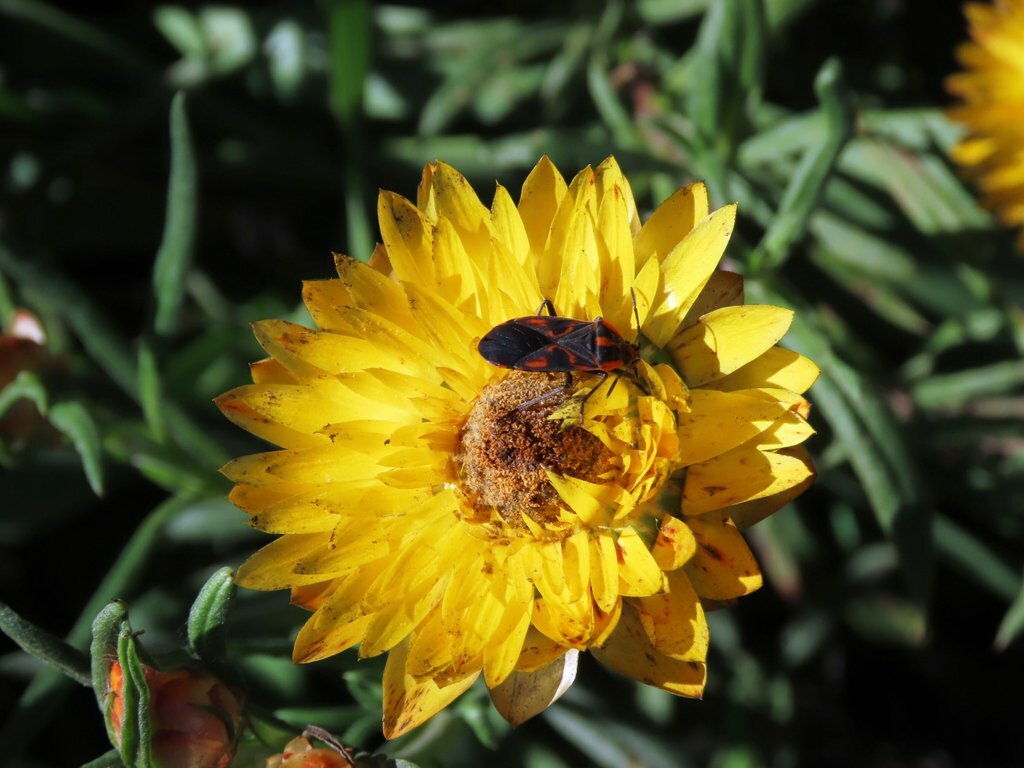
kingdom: Animalia
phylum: Arthropoda
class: Insecta
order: Hemiptera
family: Lygaeidae
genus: Spilostethus
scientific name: Spilostethus pacificus
